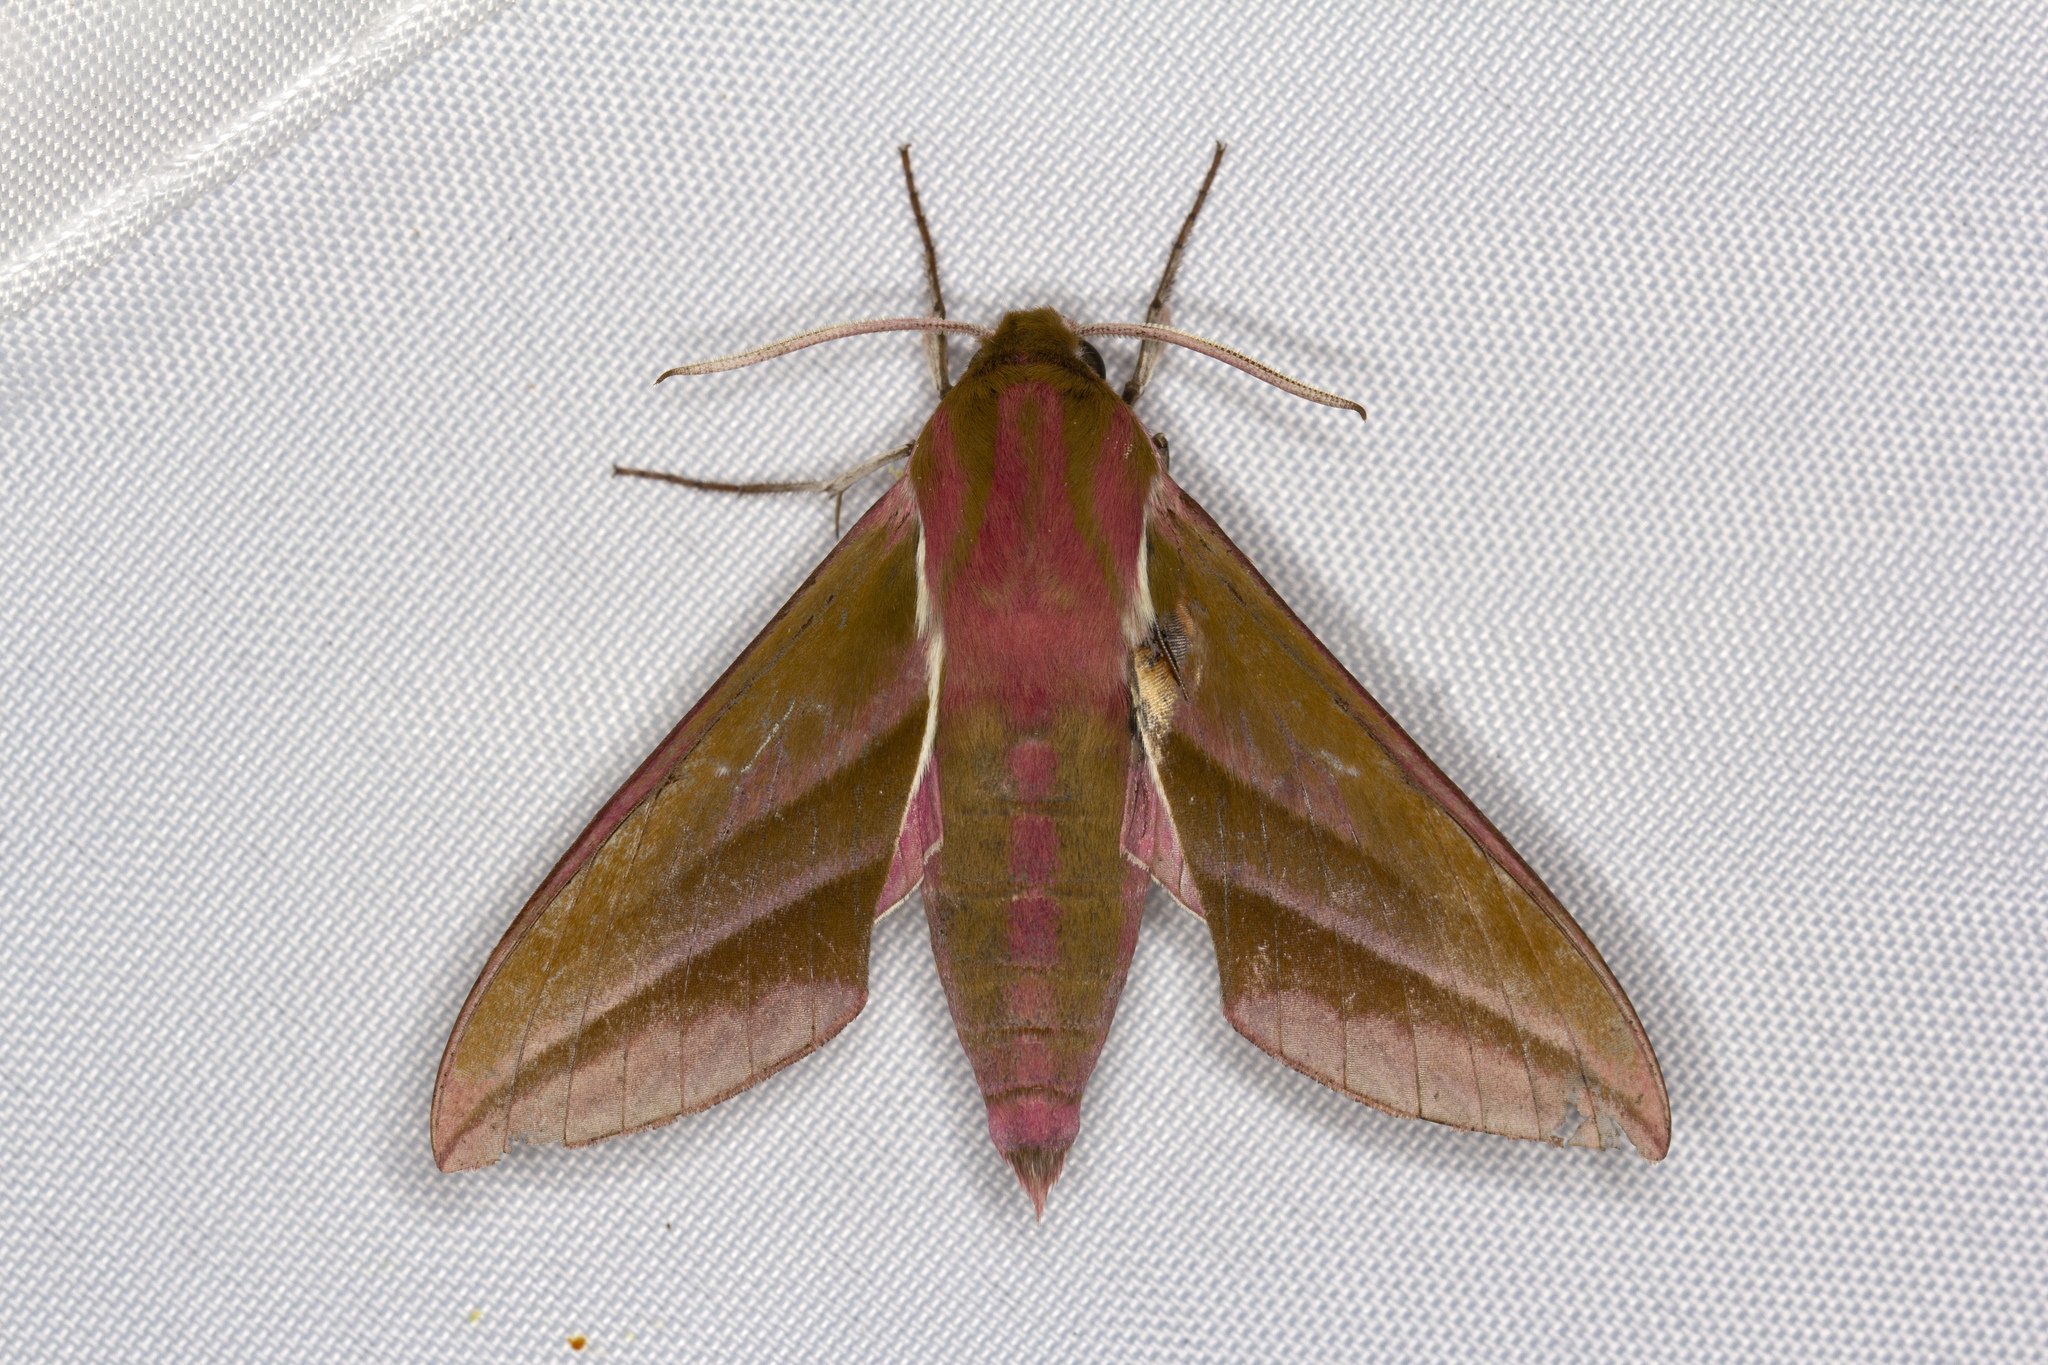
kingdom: Animalia
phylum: Arthropoda
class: Insecta
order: Lepidoptera
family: Sphingidae
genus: Deilephila
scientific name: Deilephila elpenor
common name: Elephant hawk-moth
